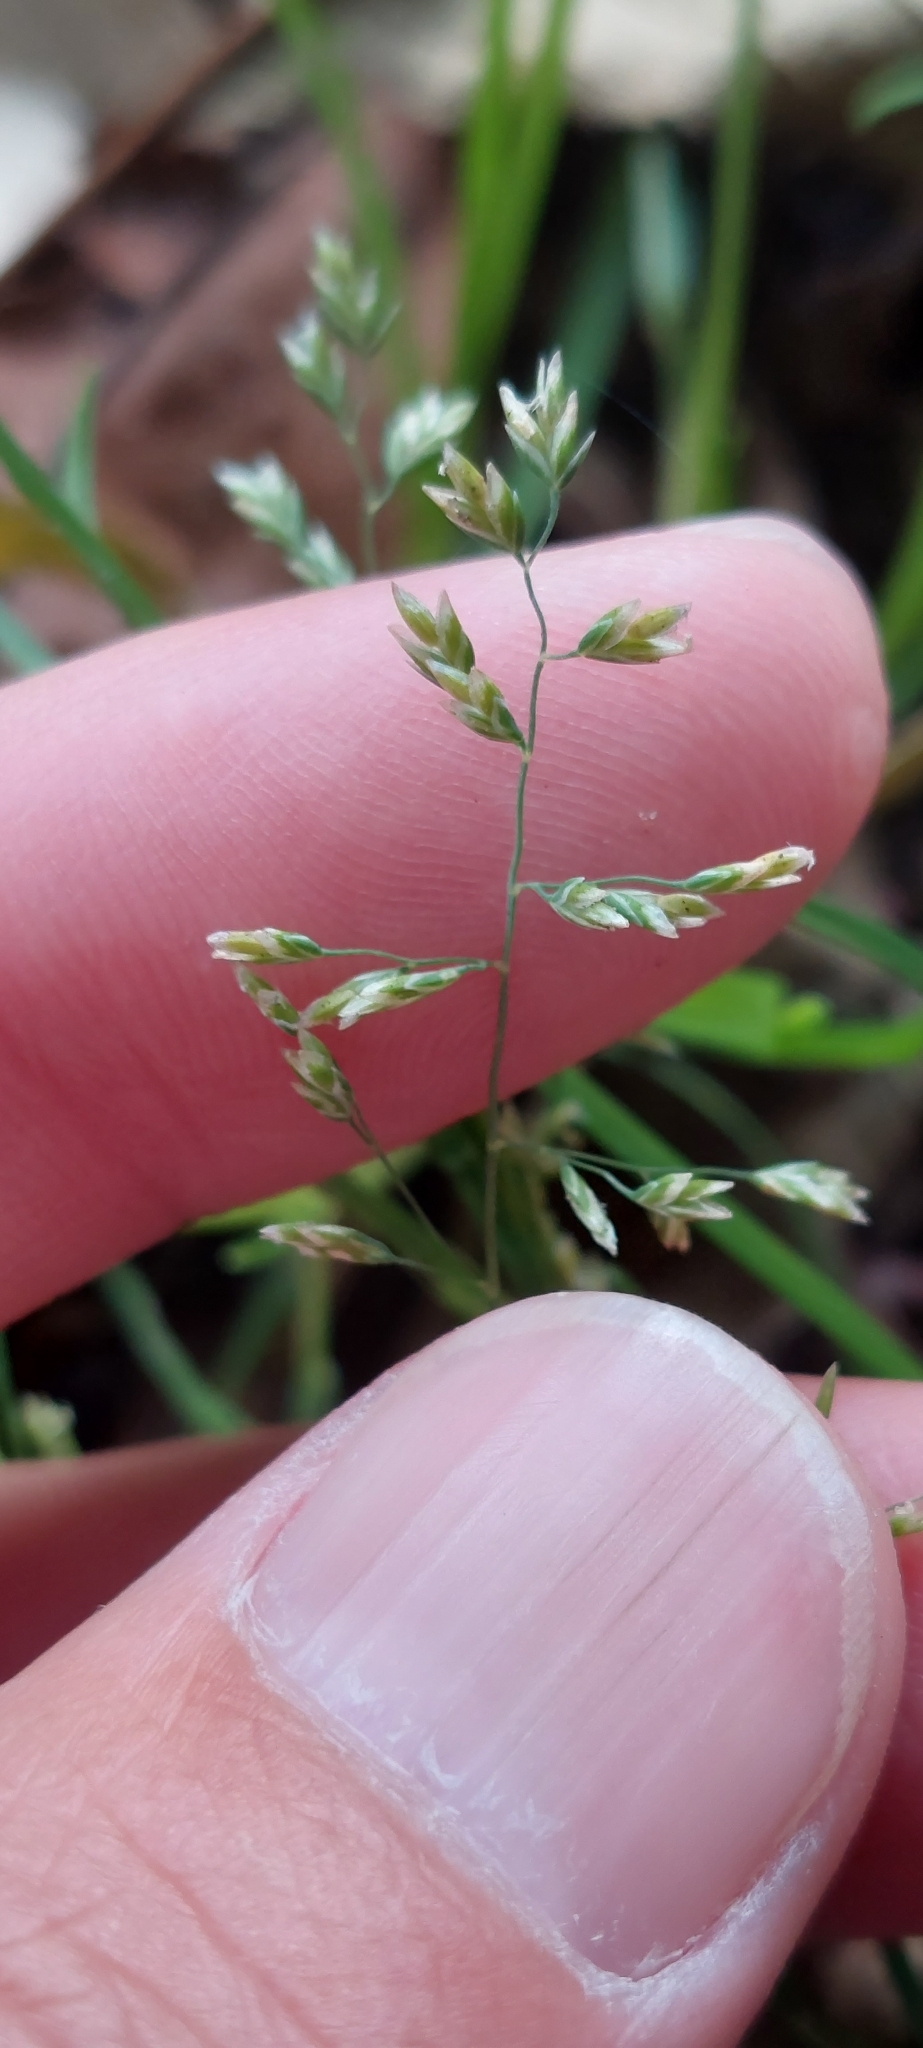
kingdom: Plantae
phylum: Tracheophyta
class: Liliopsida
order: Poales
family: Poaceae
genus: Poa
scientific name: Poa annua
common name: Annual bluegrass
